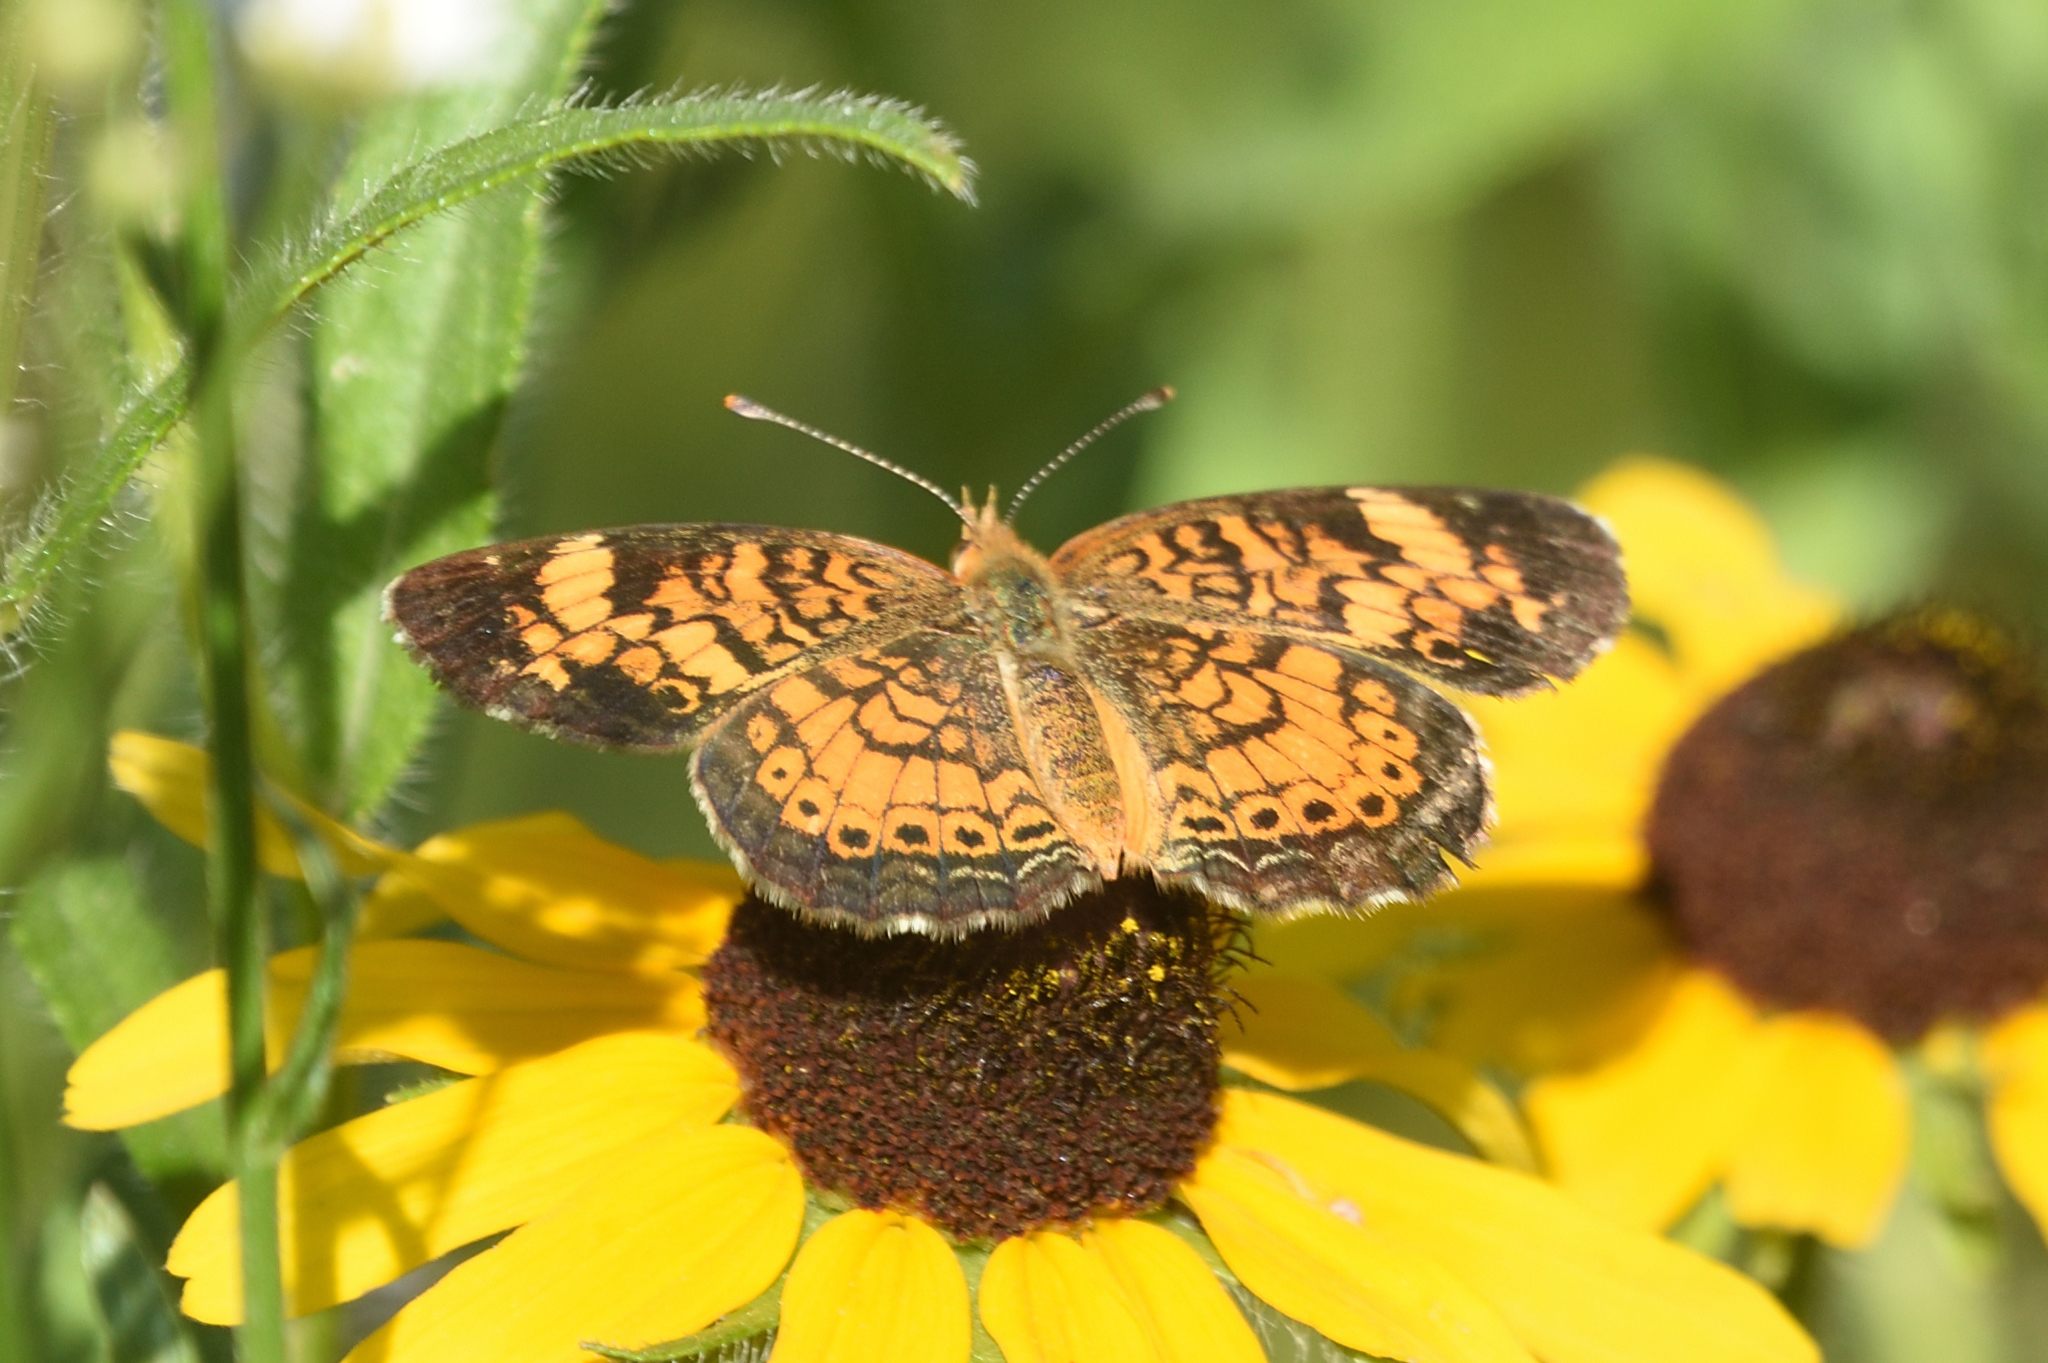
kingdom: Animalia
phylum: Arthropoda
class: Insecta
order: Lepidoptera
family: Nymphalidae
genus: Phyciodes
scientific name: Phyciodes tharos
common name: Pearl crescent
